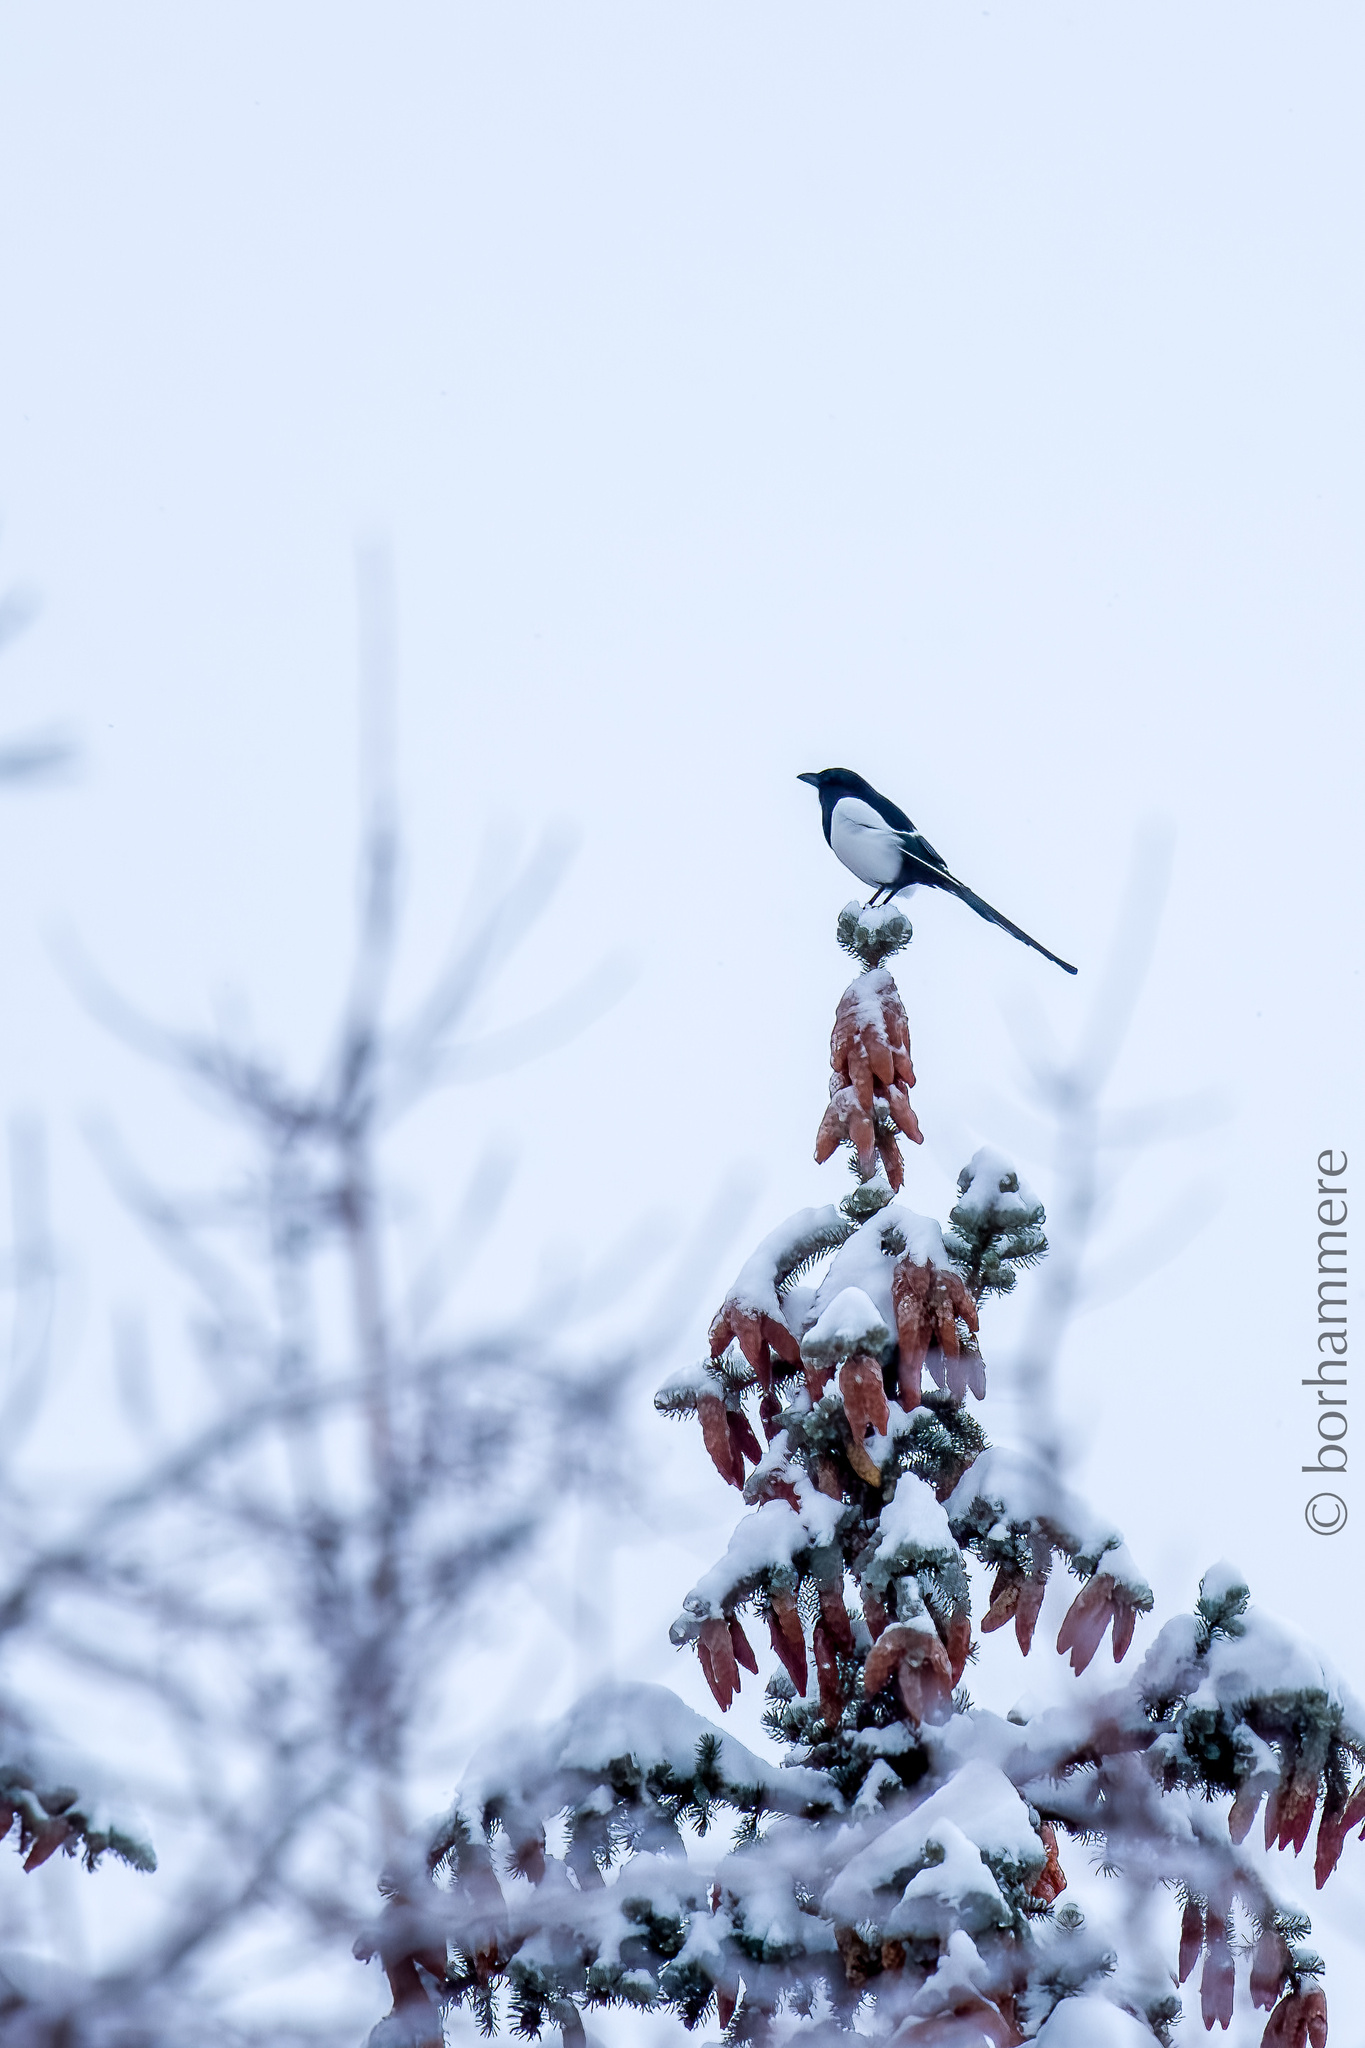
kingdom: Animalia
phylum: Chordata
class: Aves
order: Passeriformes
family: Corvidae
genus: Pica
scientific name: Pica pica
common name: Eurasian magpie
